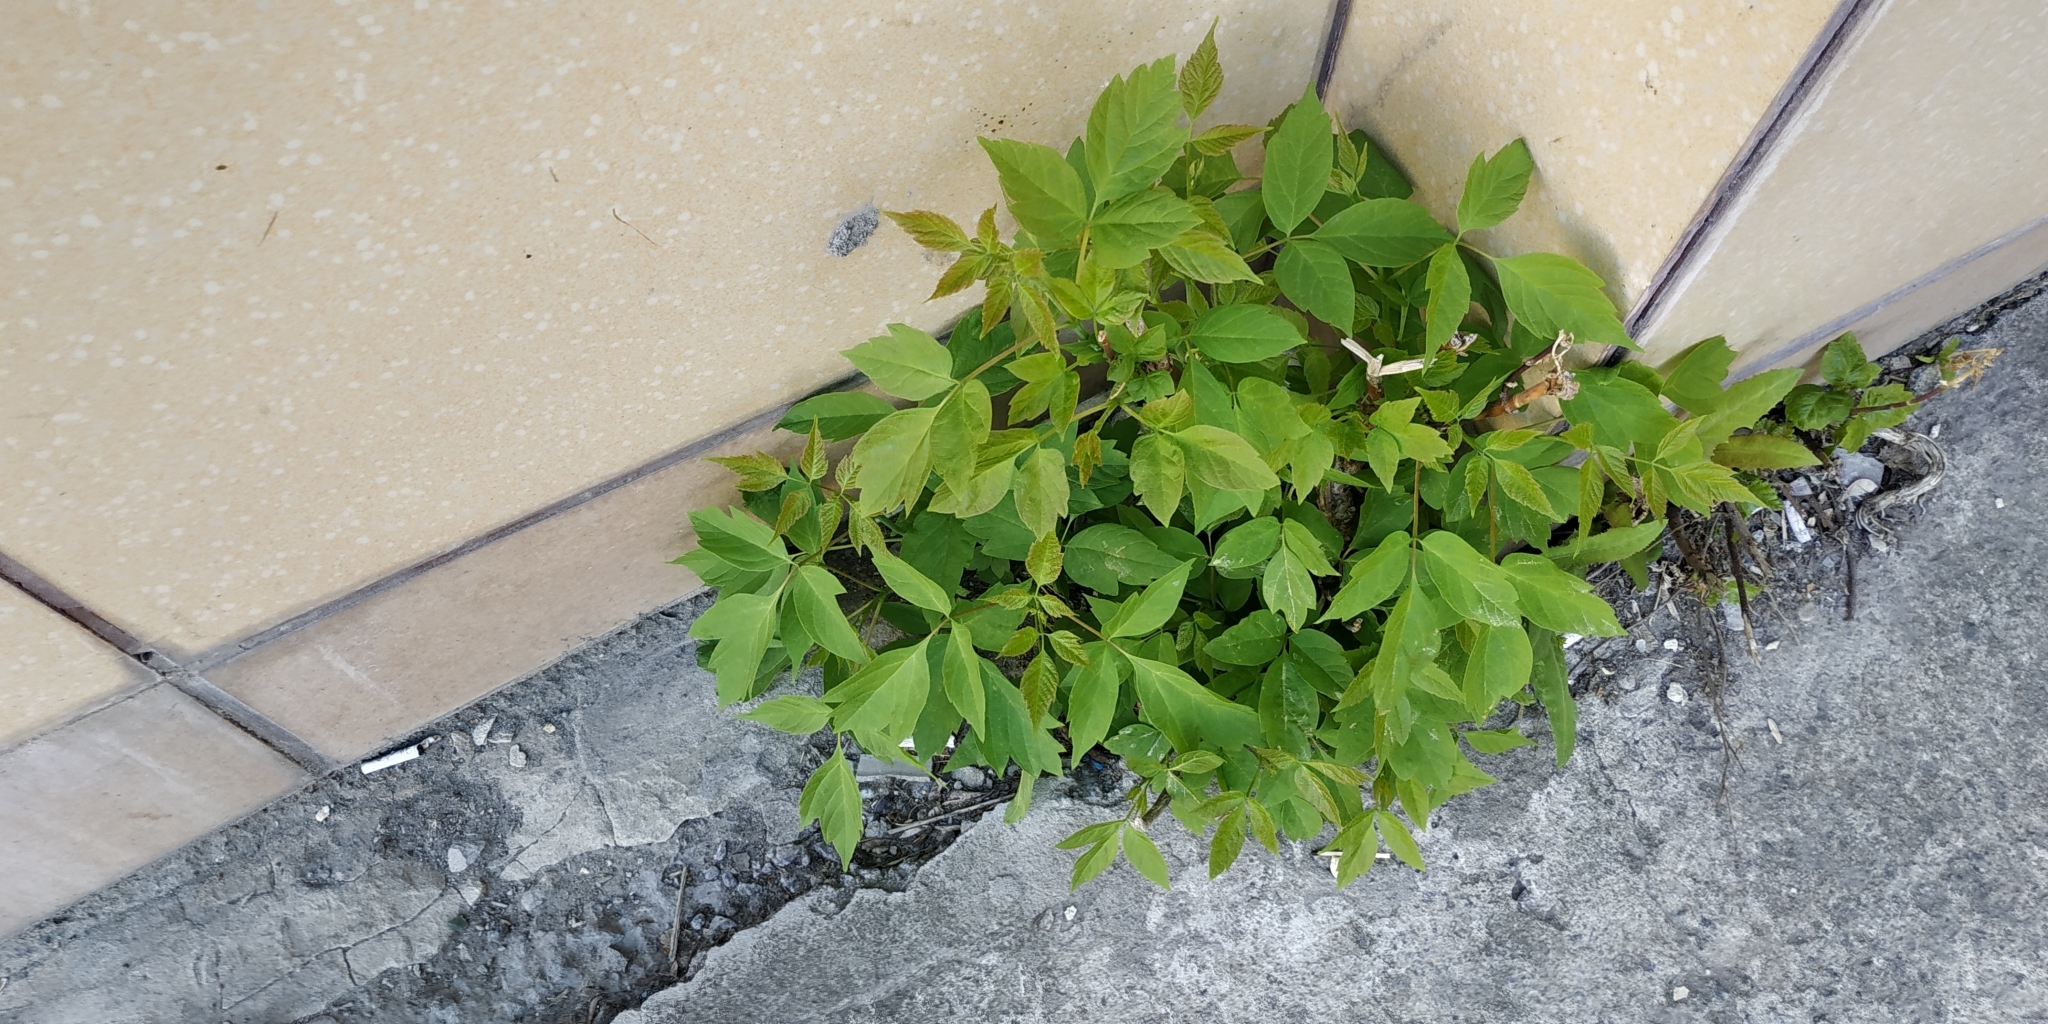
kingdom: Plantae
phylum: Tracheophyta
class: Magnoliopsida
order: Sapindales
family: Sapindaceae
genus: Acer
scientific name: Acer negundo
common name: Ashleaf maple
